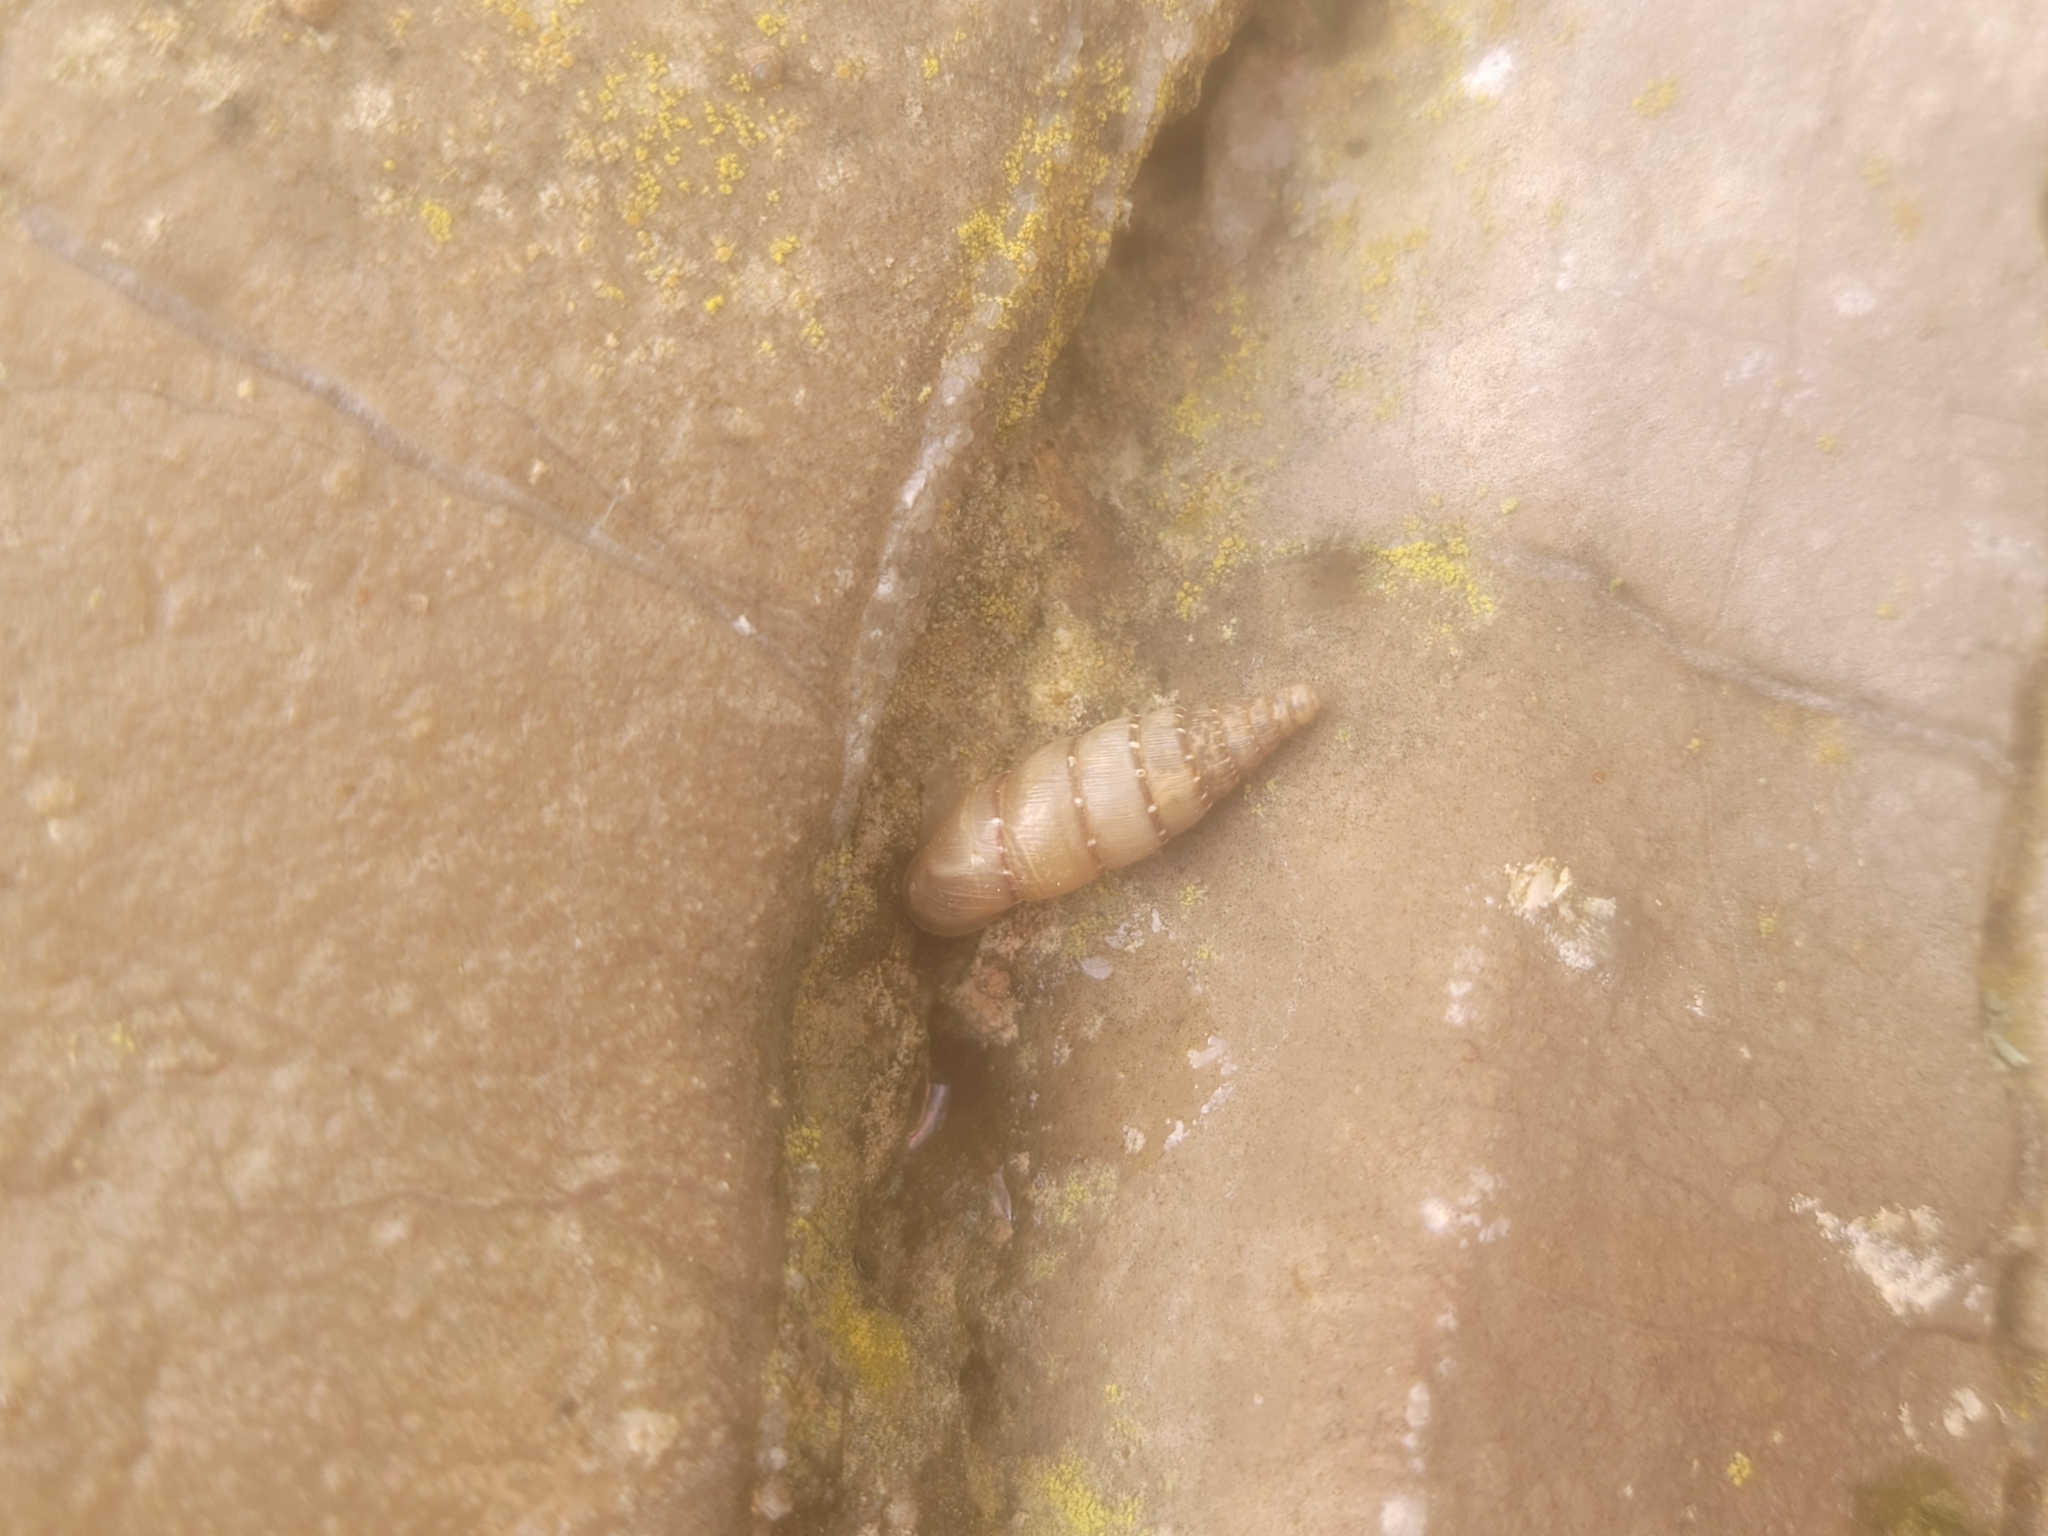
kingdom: Animalia
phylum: Mollusca
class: Gastropoda
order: Stylommatophora
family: Clausiliidae
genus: Papillifera
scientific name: Papillifera papillaris
